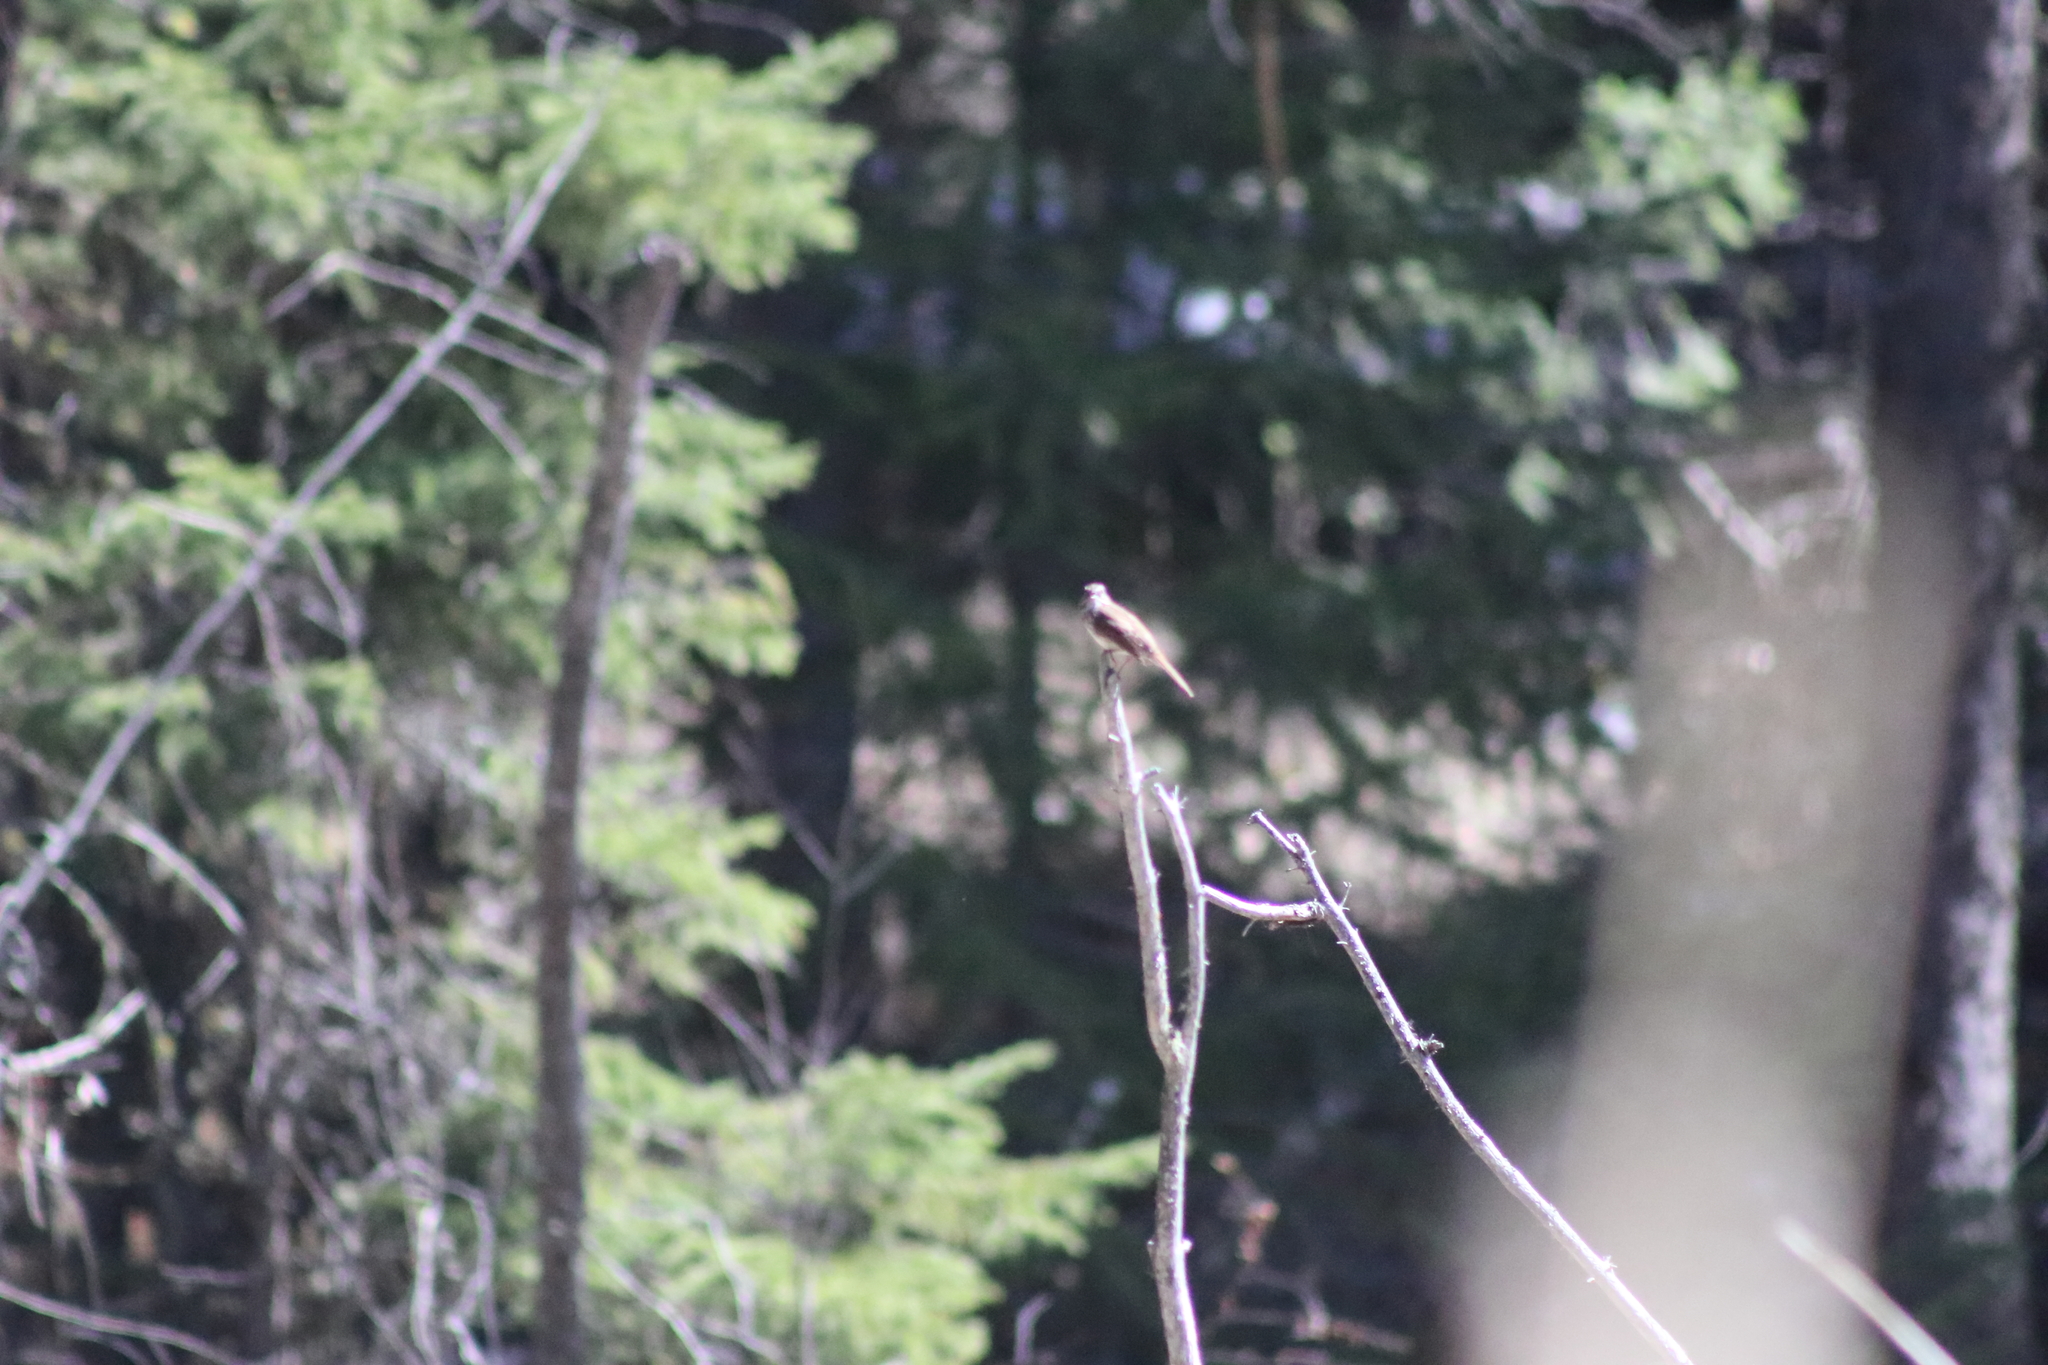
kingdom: Animalia
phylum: Chordata
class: Aves
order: Passeriformes
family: Passerellidae
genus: Melospiza
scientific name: Melospiza melodia
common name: Song sparrow
